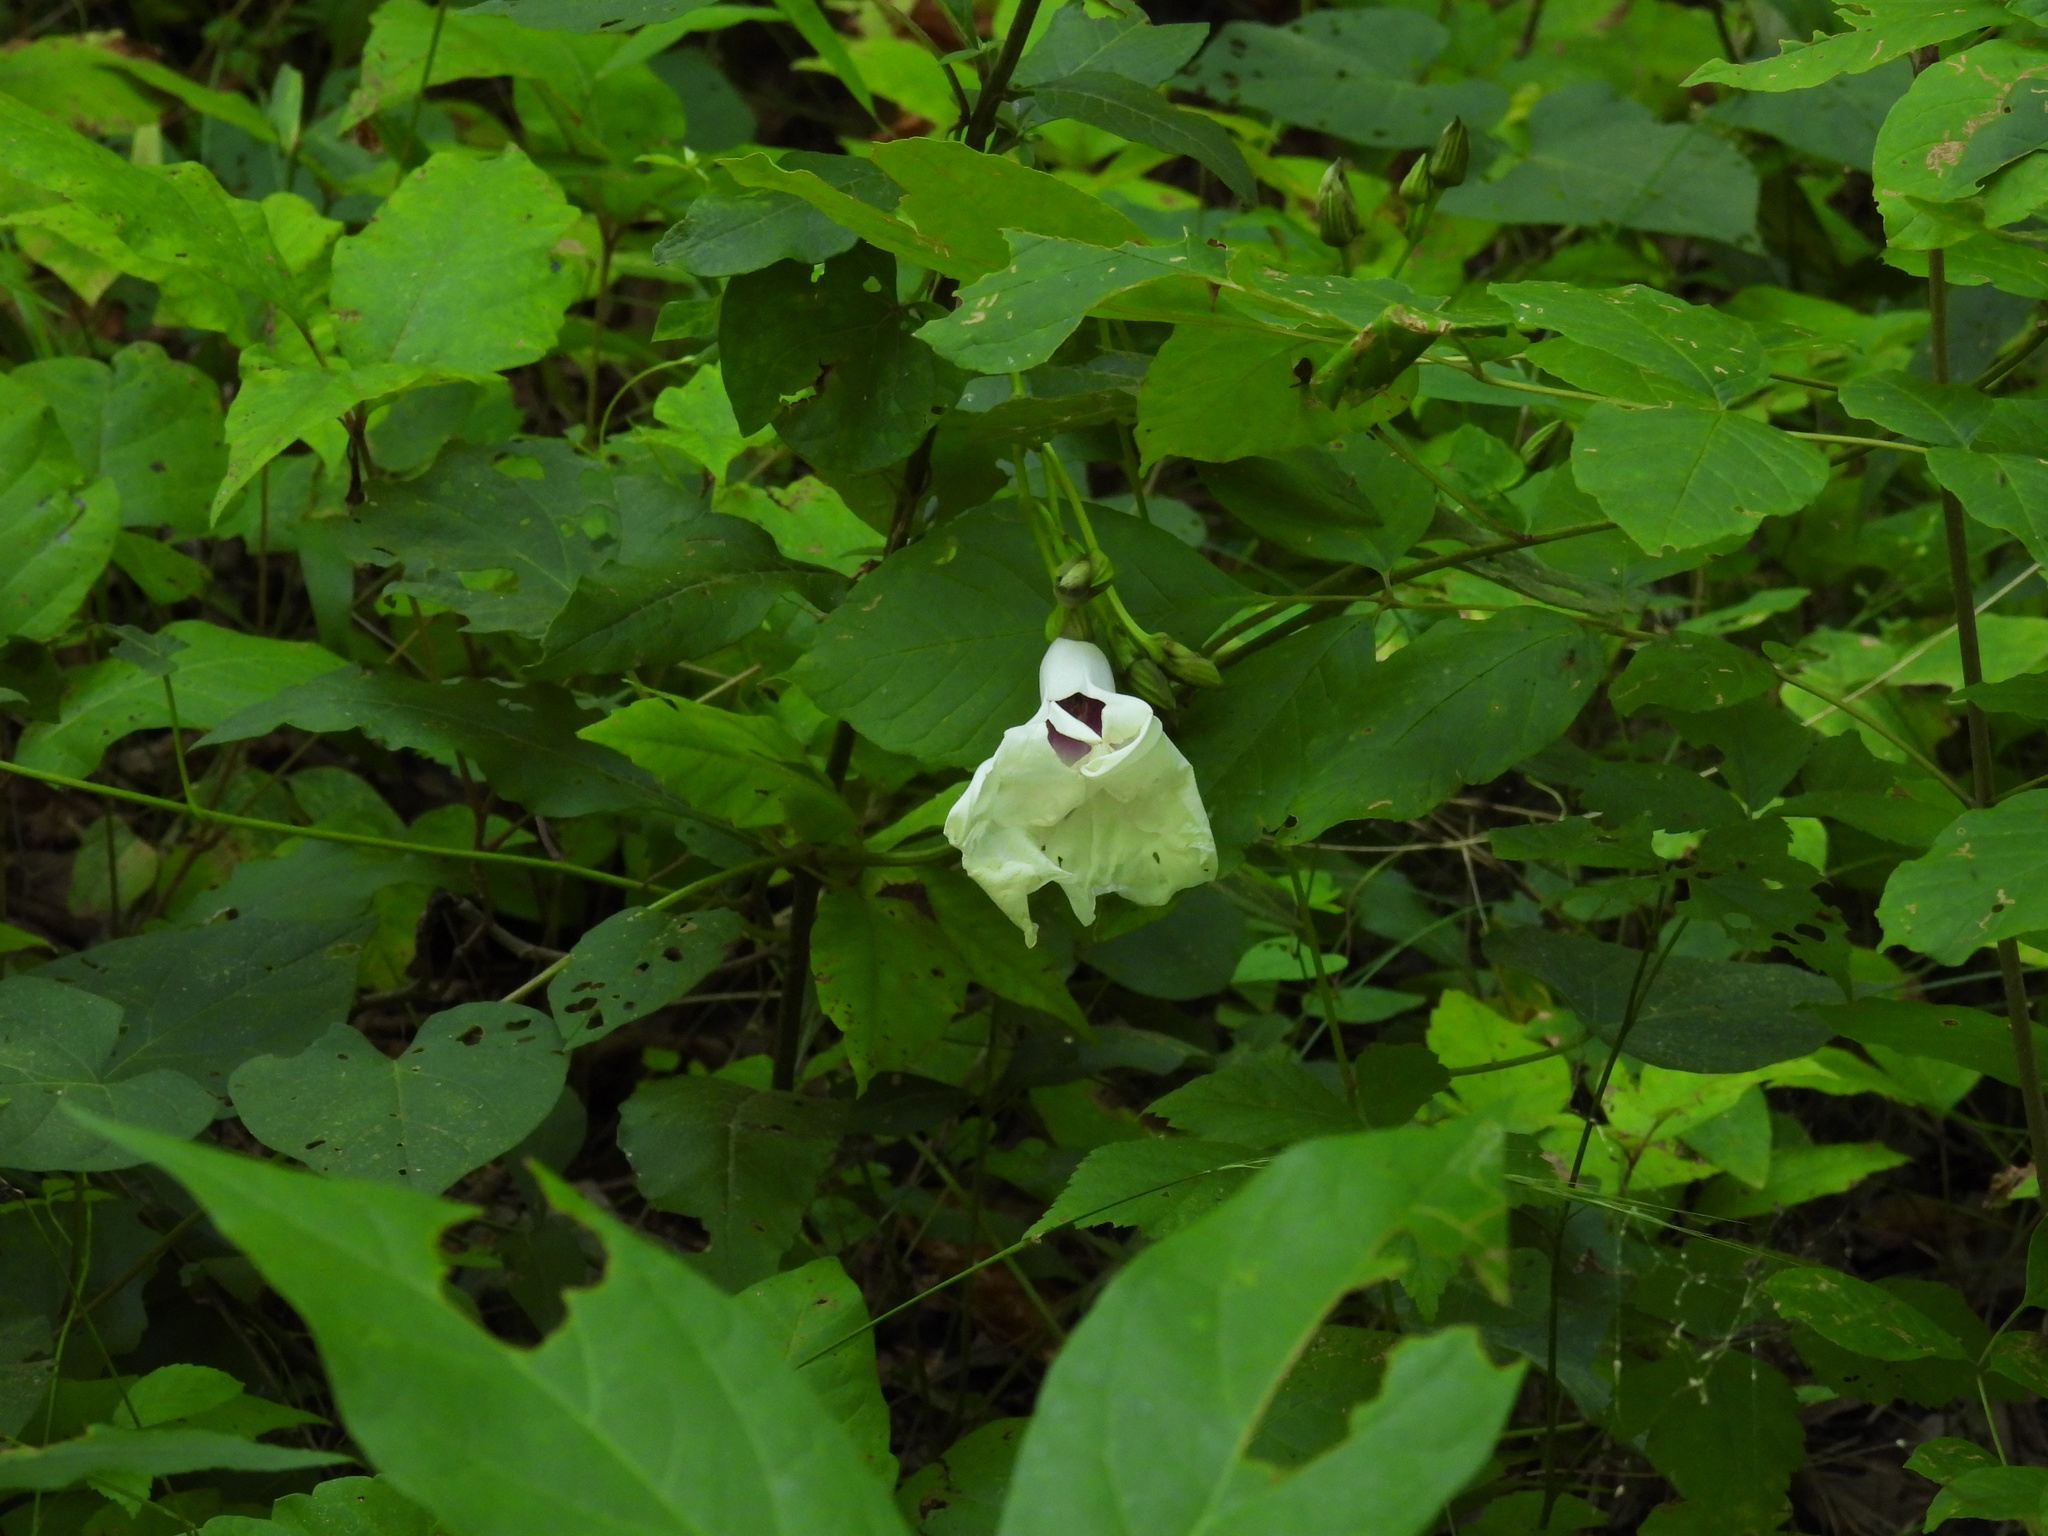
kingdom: Plantae
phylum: Tracheophyta
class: Magnoliopsida
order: Solanales
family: Convolvulaceae
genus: Ipomoea
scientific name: Ipomoea pandurata
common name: Man-of-the-earth
